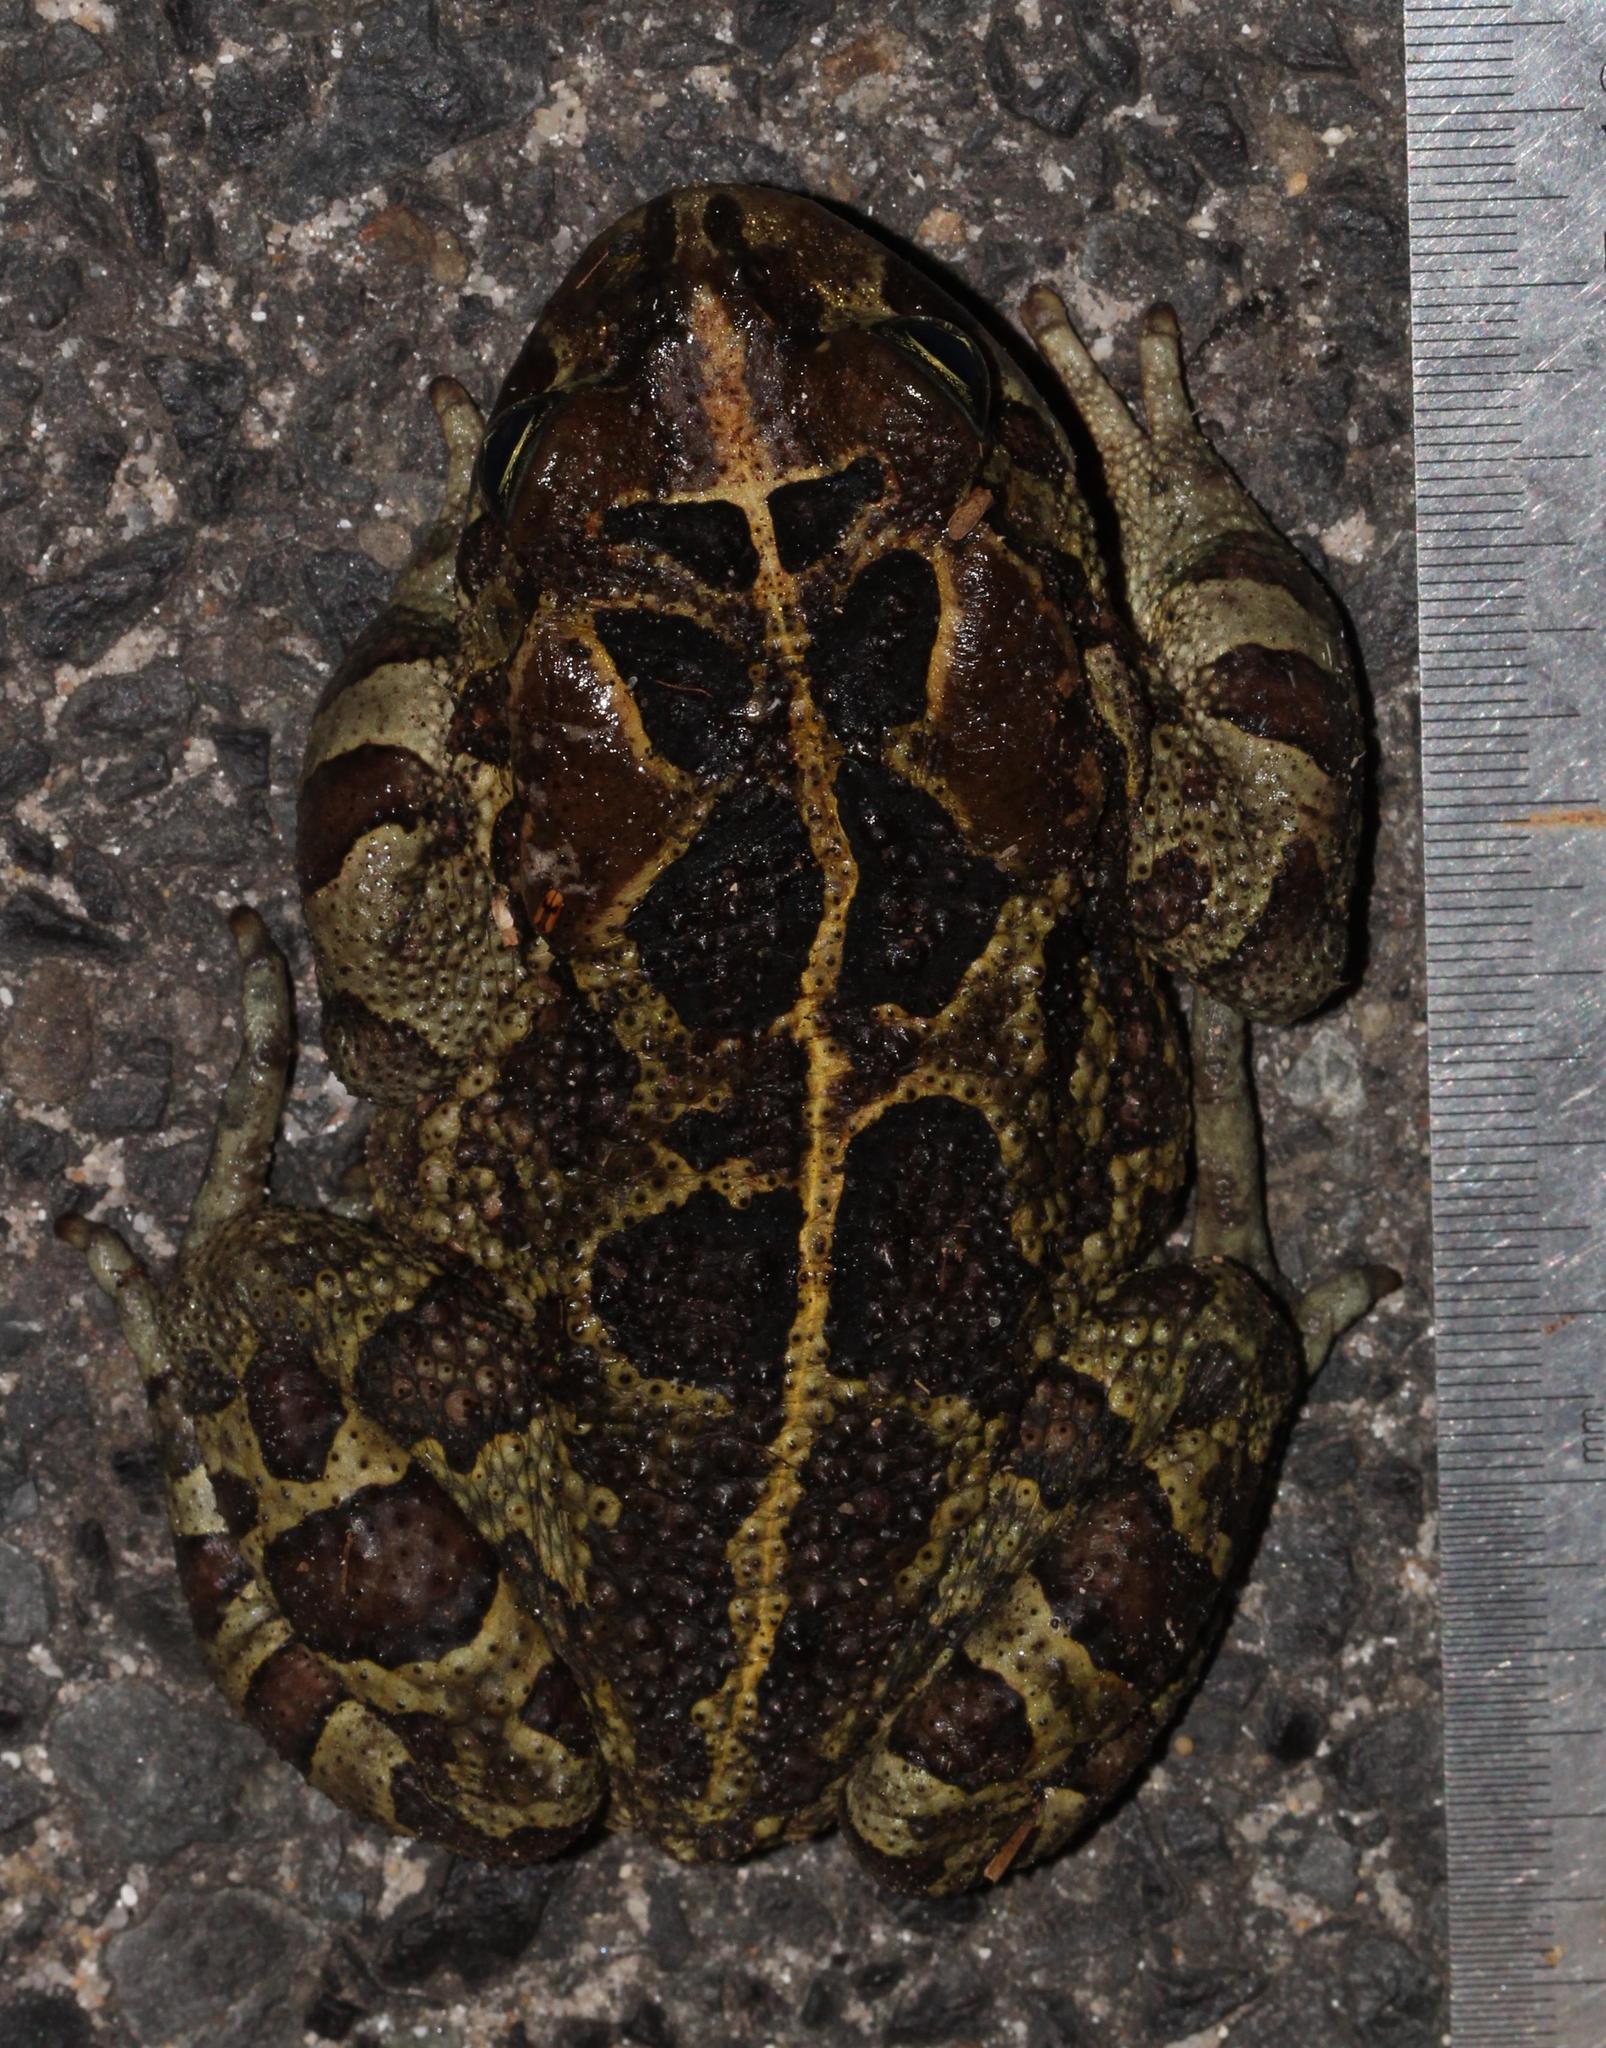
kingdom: Animalia
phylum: Chordata
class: Amphibia
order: Anura
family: Bufonidae
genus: Sclerophrys
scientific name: Sclerophrys pantherina
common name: Panther toad
